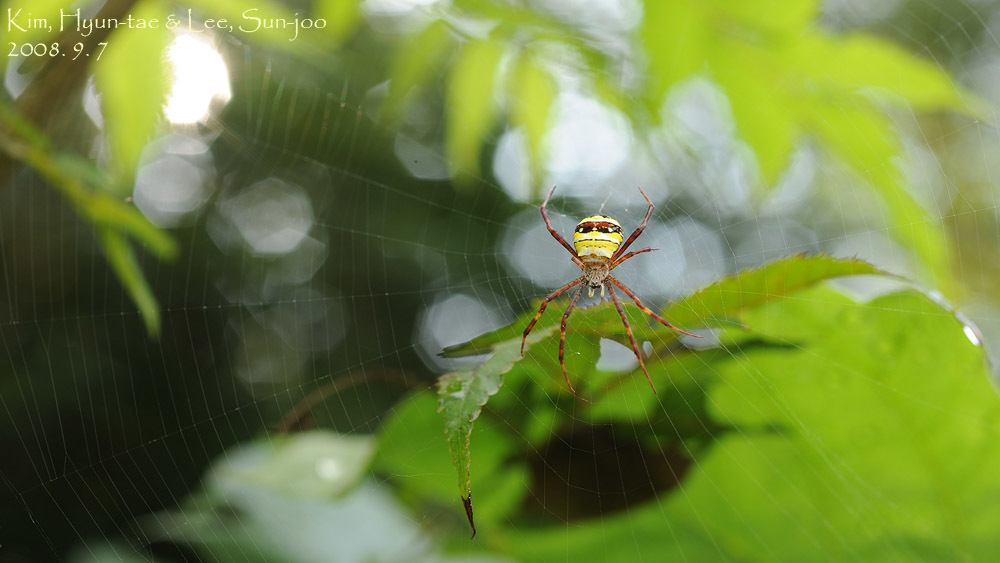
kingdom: Animalia
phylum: Arthropoda
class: Arachnida
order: Araneae
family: Araneidae
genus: Argiope
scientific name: Argiope minuta
